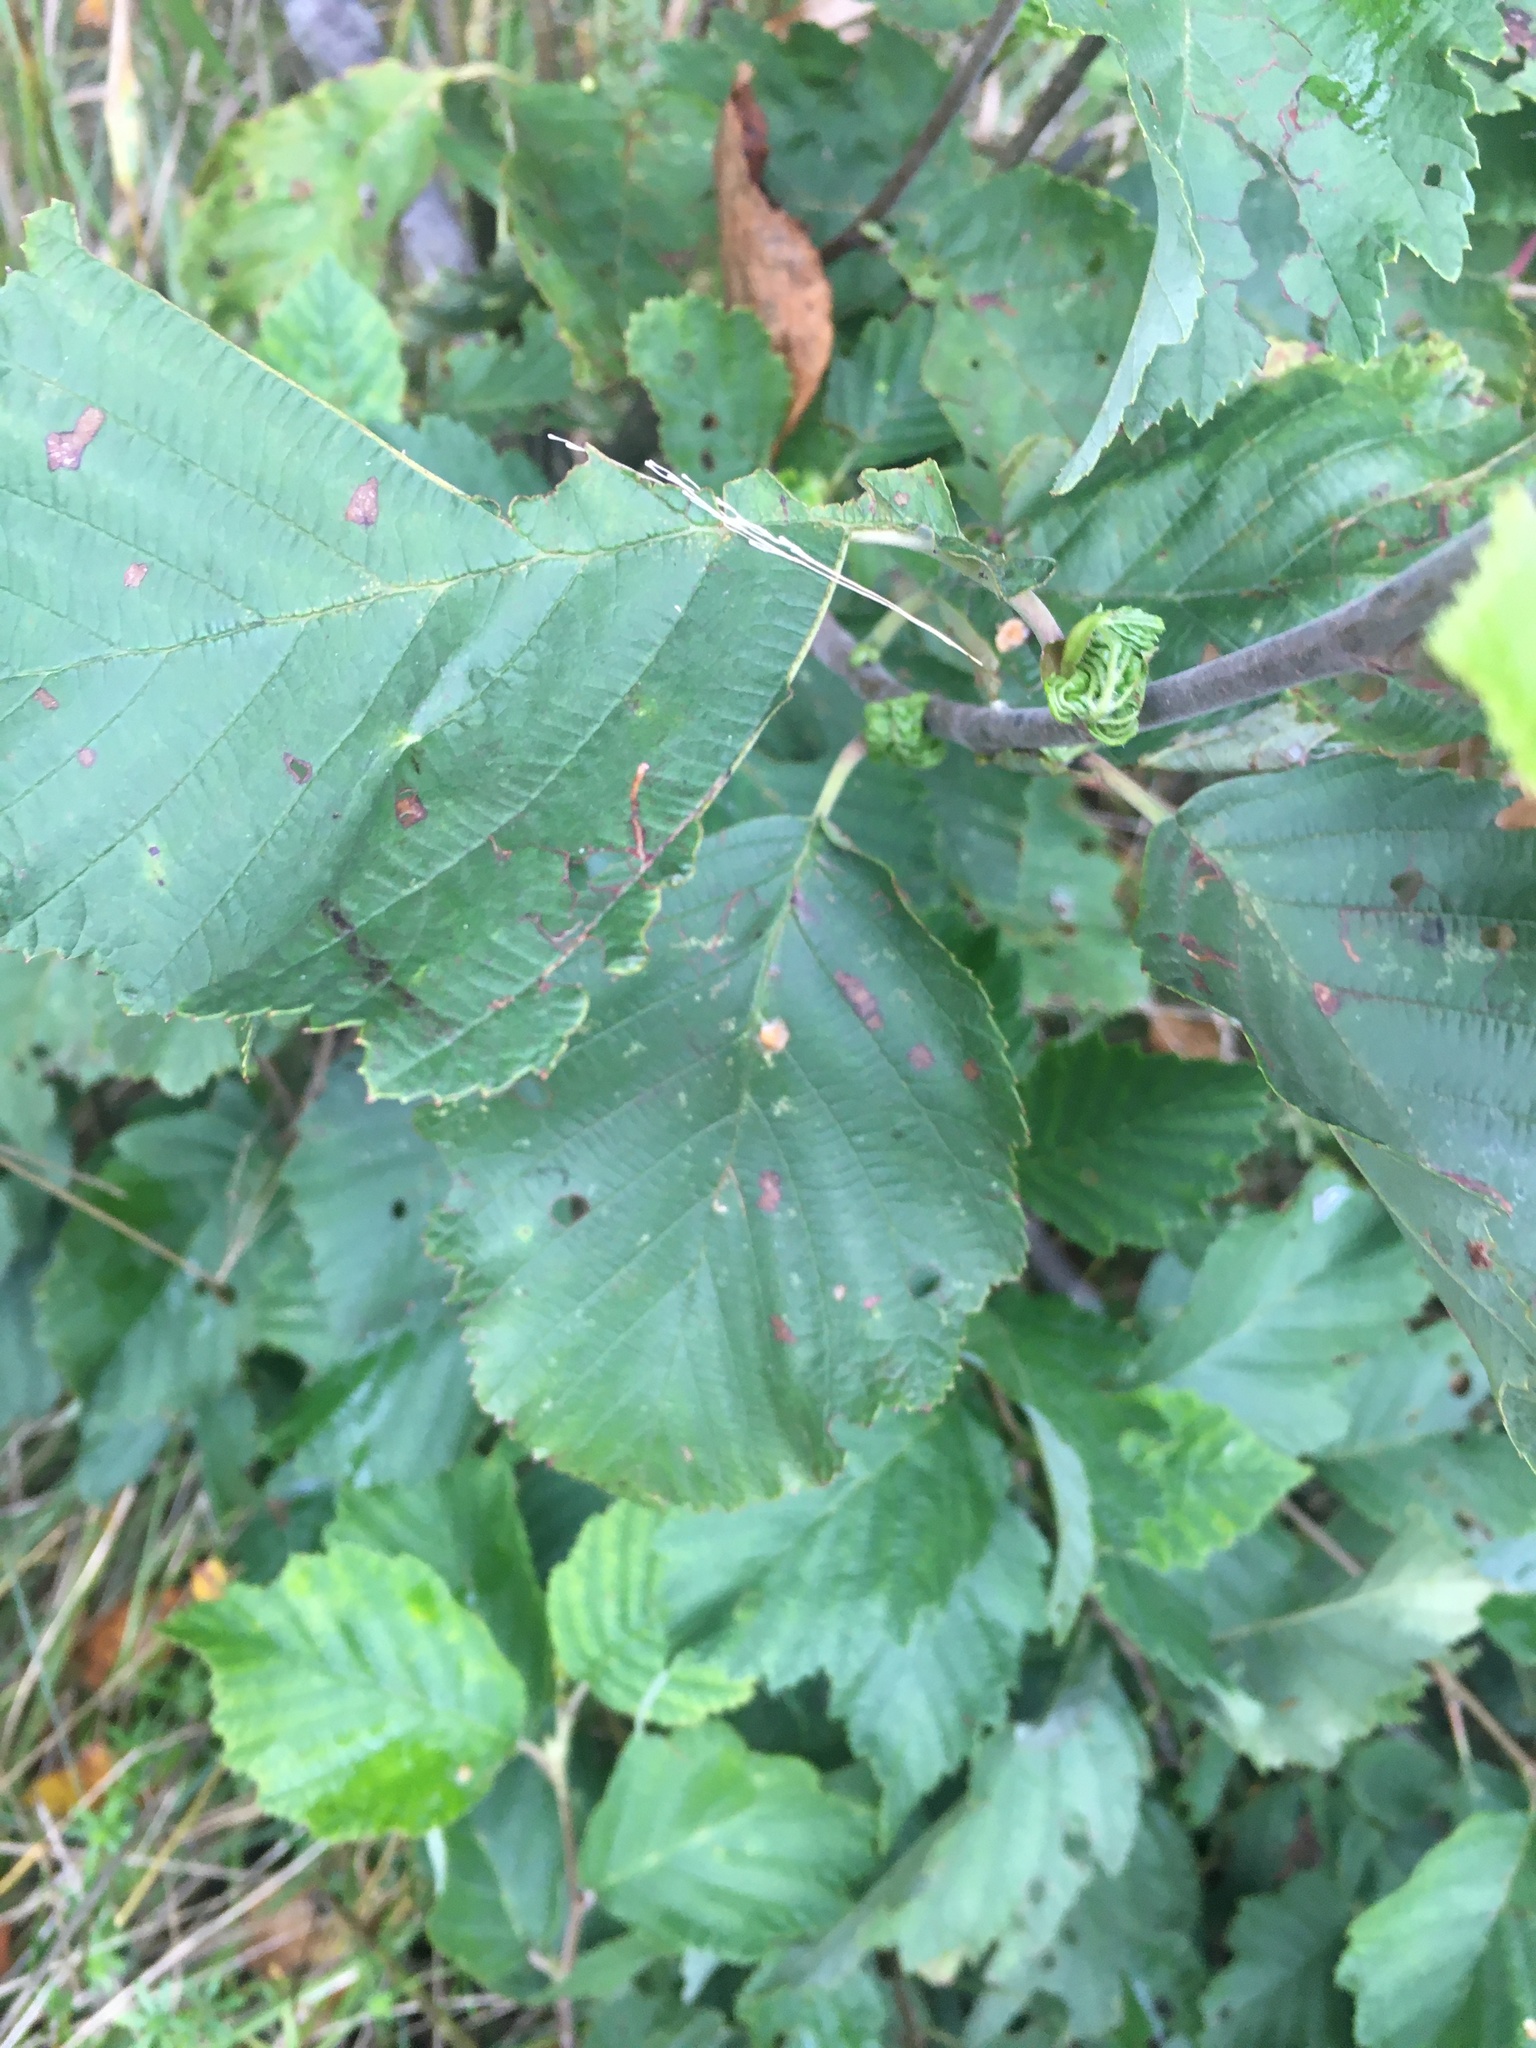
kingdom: Plantae
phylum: Tracheophyta
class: Magnoliopsida
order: Fagales
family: Betulaceae
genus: Alnus
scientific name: Alnus incana
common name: Grey alder
